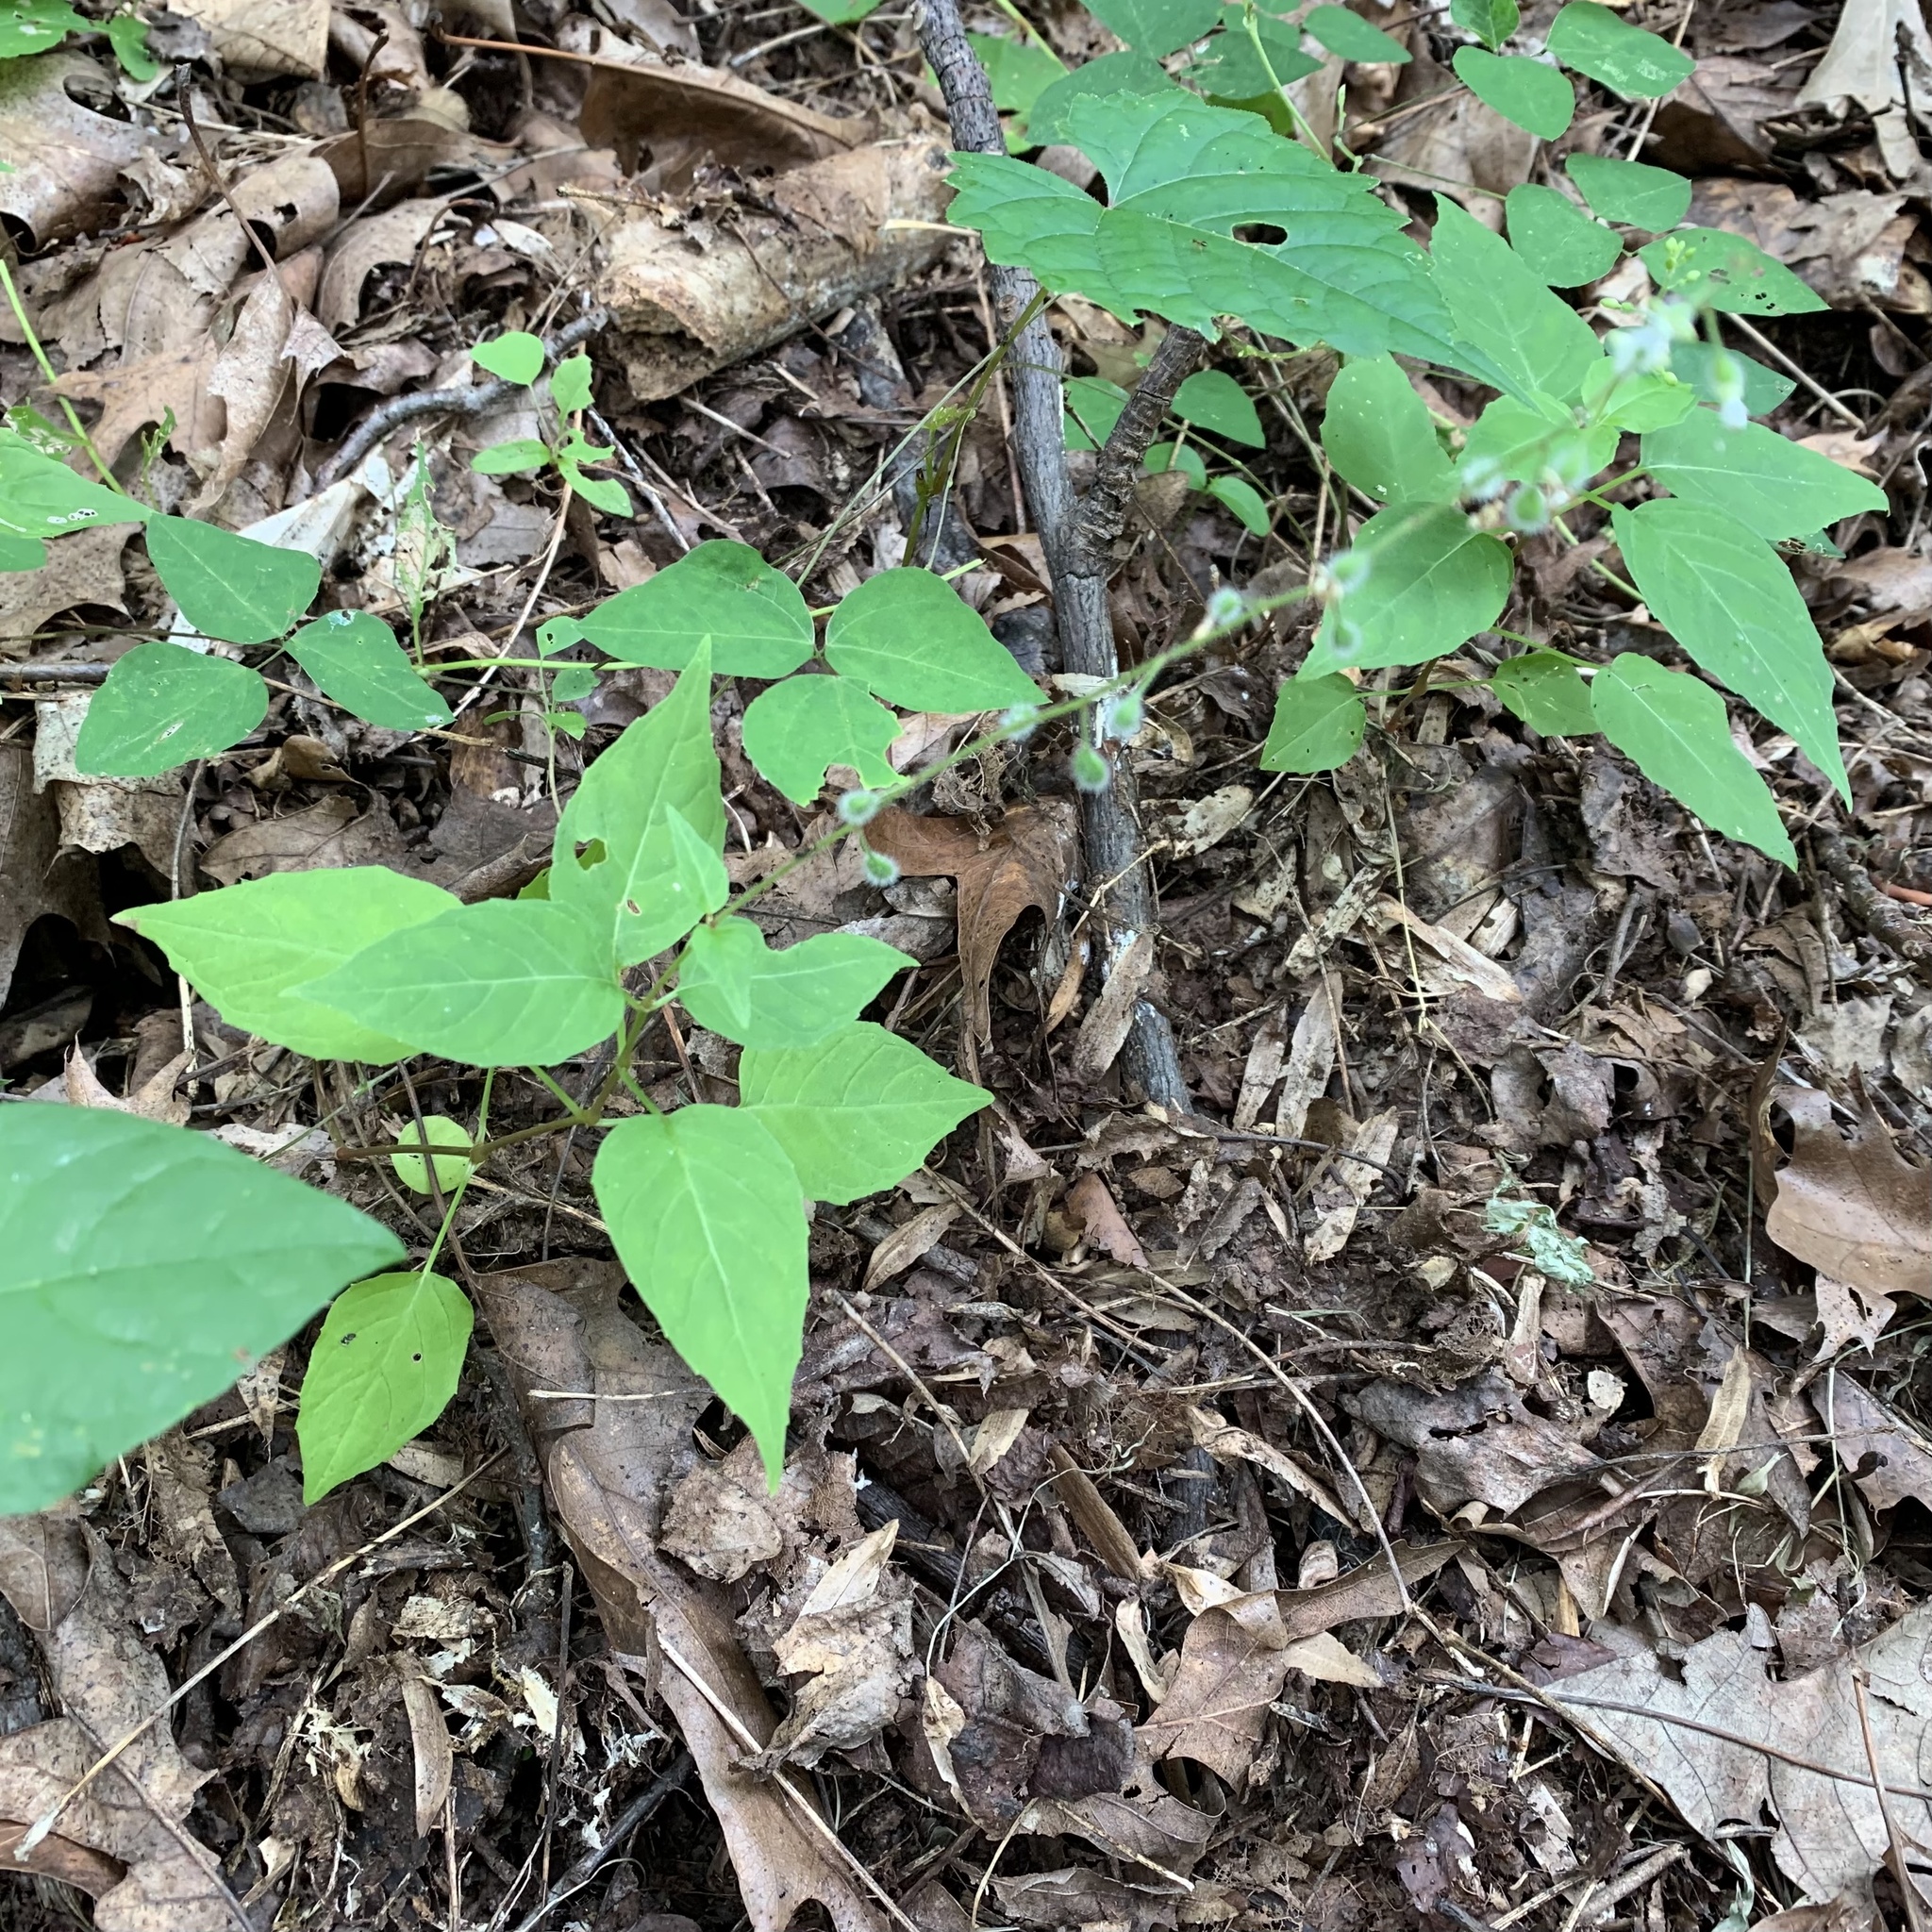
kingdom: Plantae
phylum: Tracheophyta
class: Magnoliopsida
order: Myrtales
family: Onagraceae
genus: Circaea
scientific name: Circaea canadensis
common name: Broad-leaved enchanter's nightshade
